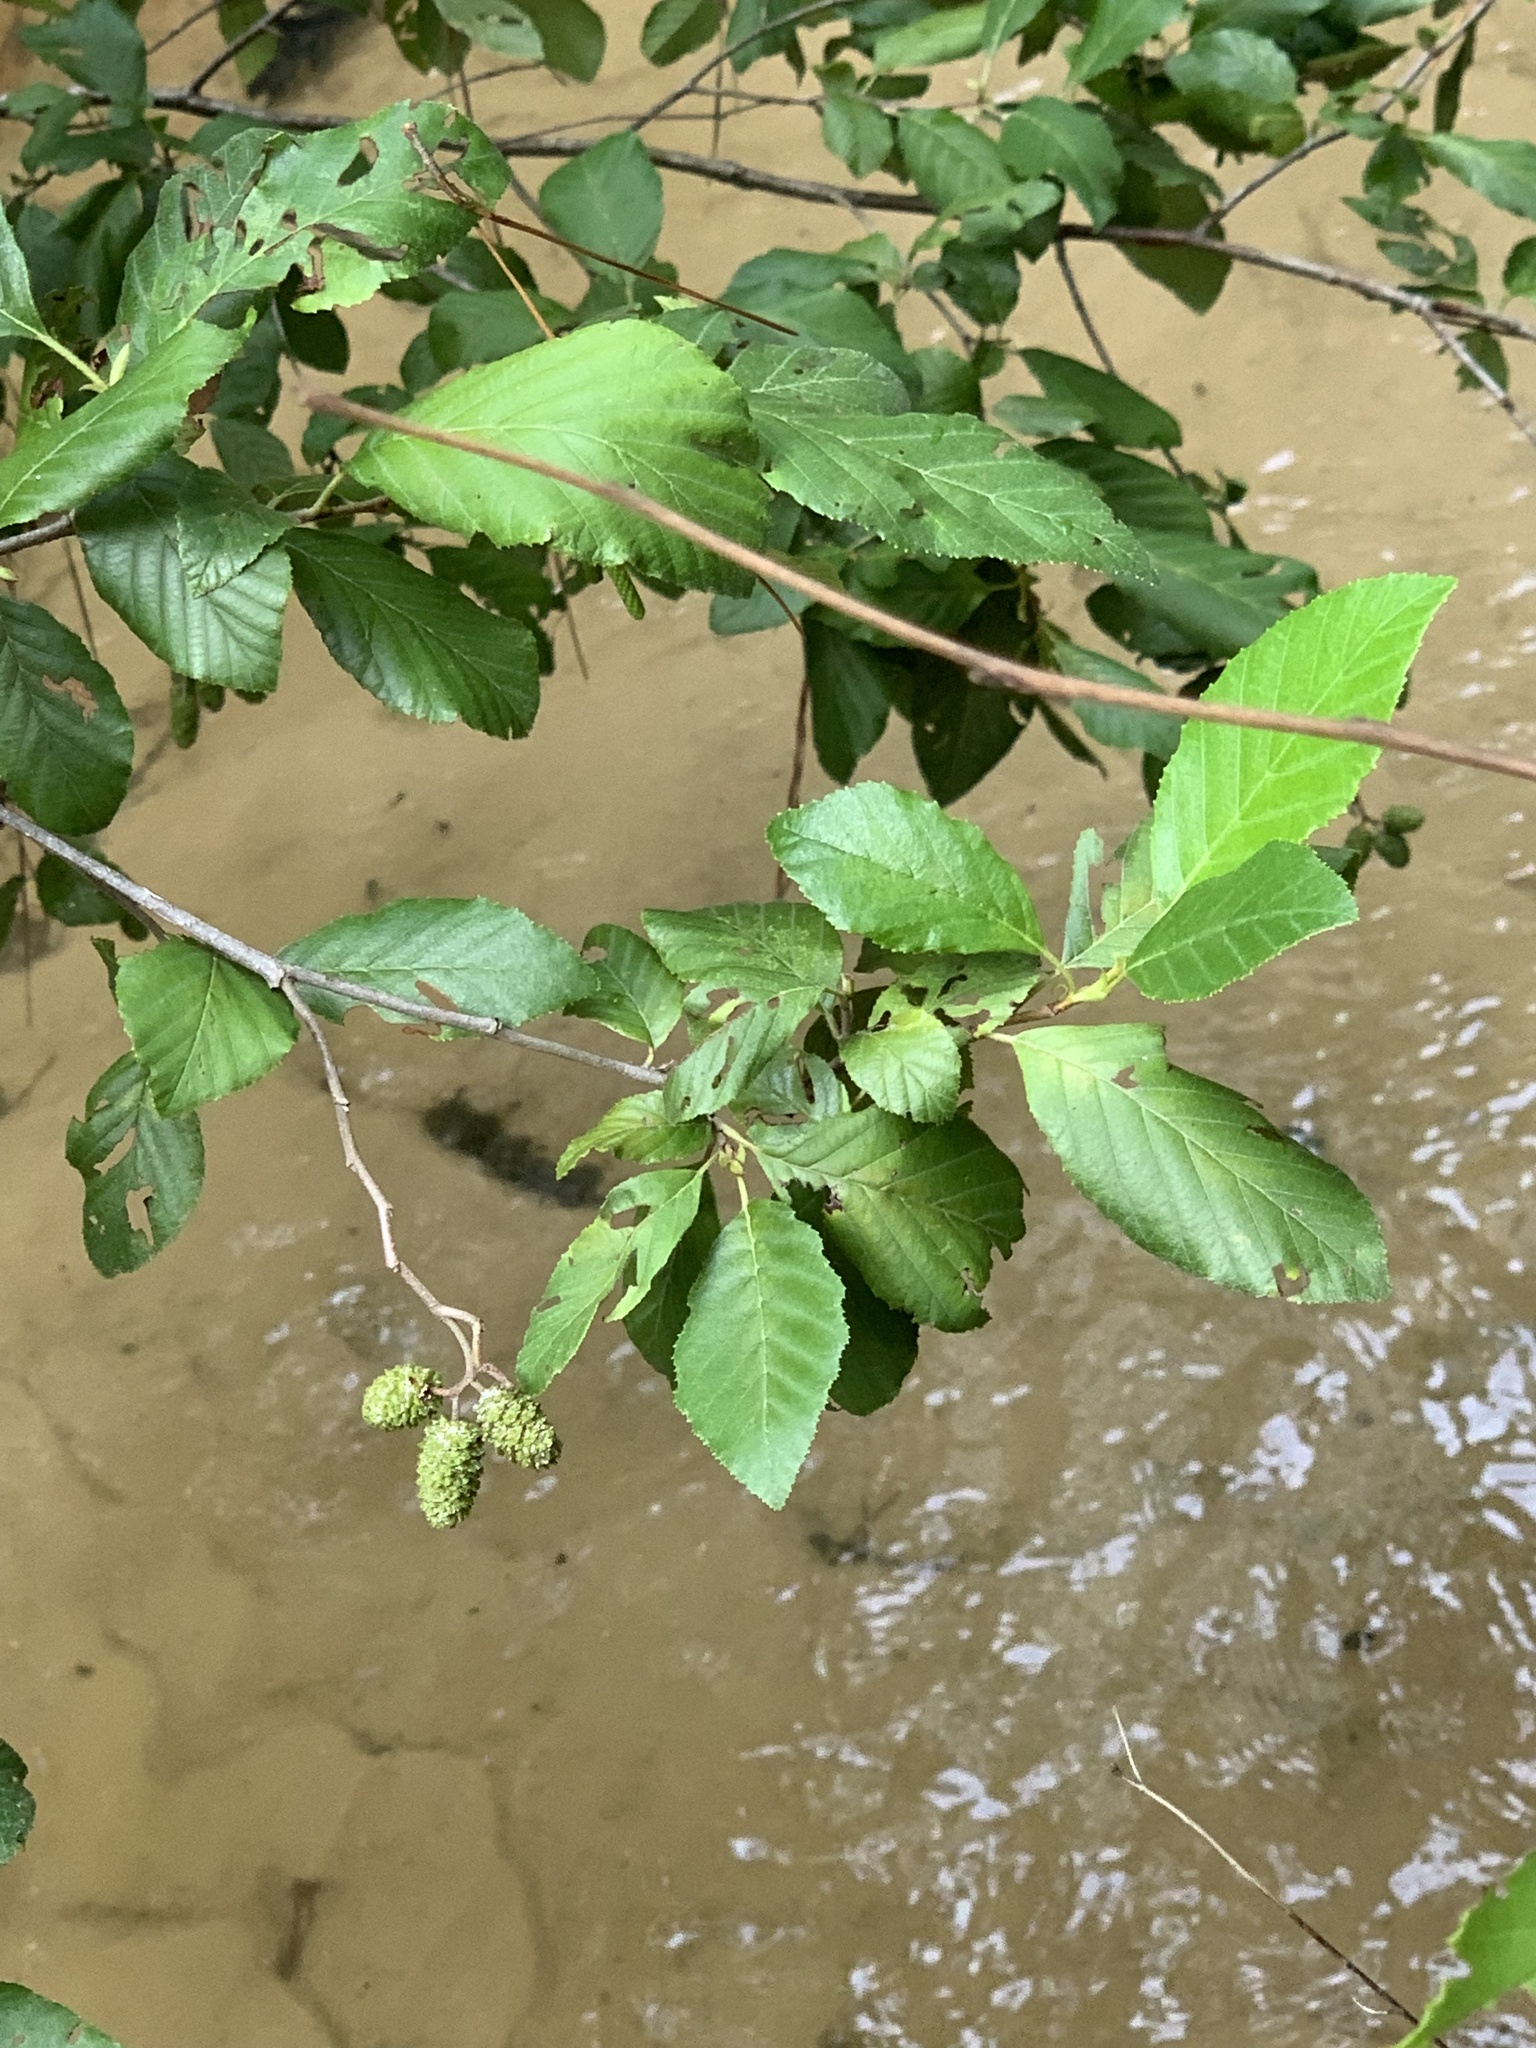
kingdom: Plantae
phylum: Tracheophyta
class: Magnoliopsida
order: Fagales
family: Betulaceae
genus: Alnus
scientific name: Alnus serrulata
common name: Hazel alder
